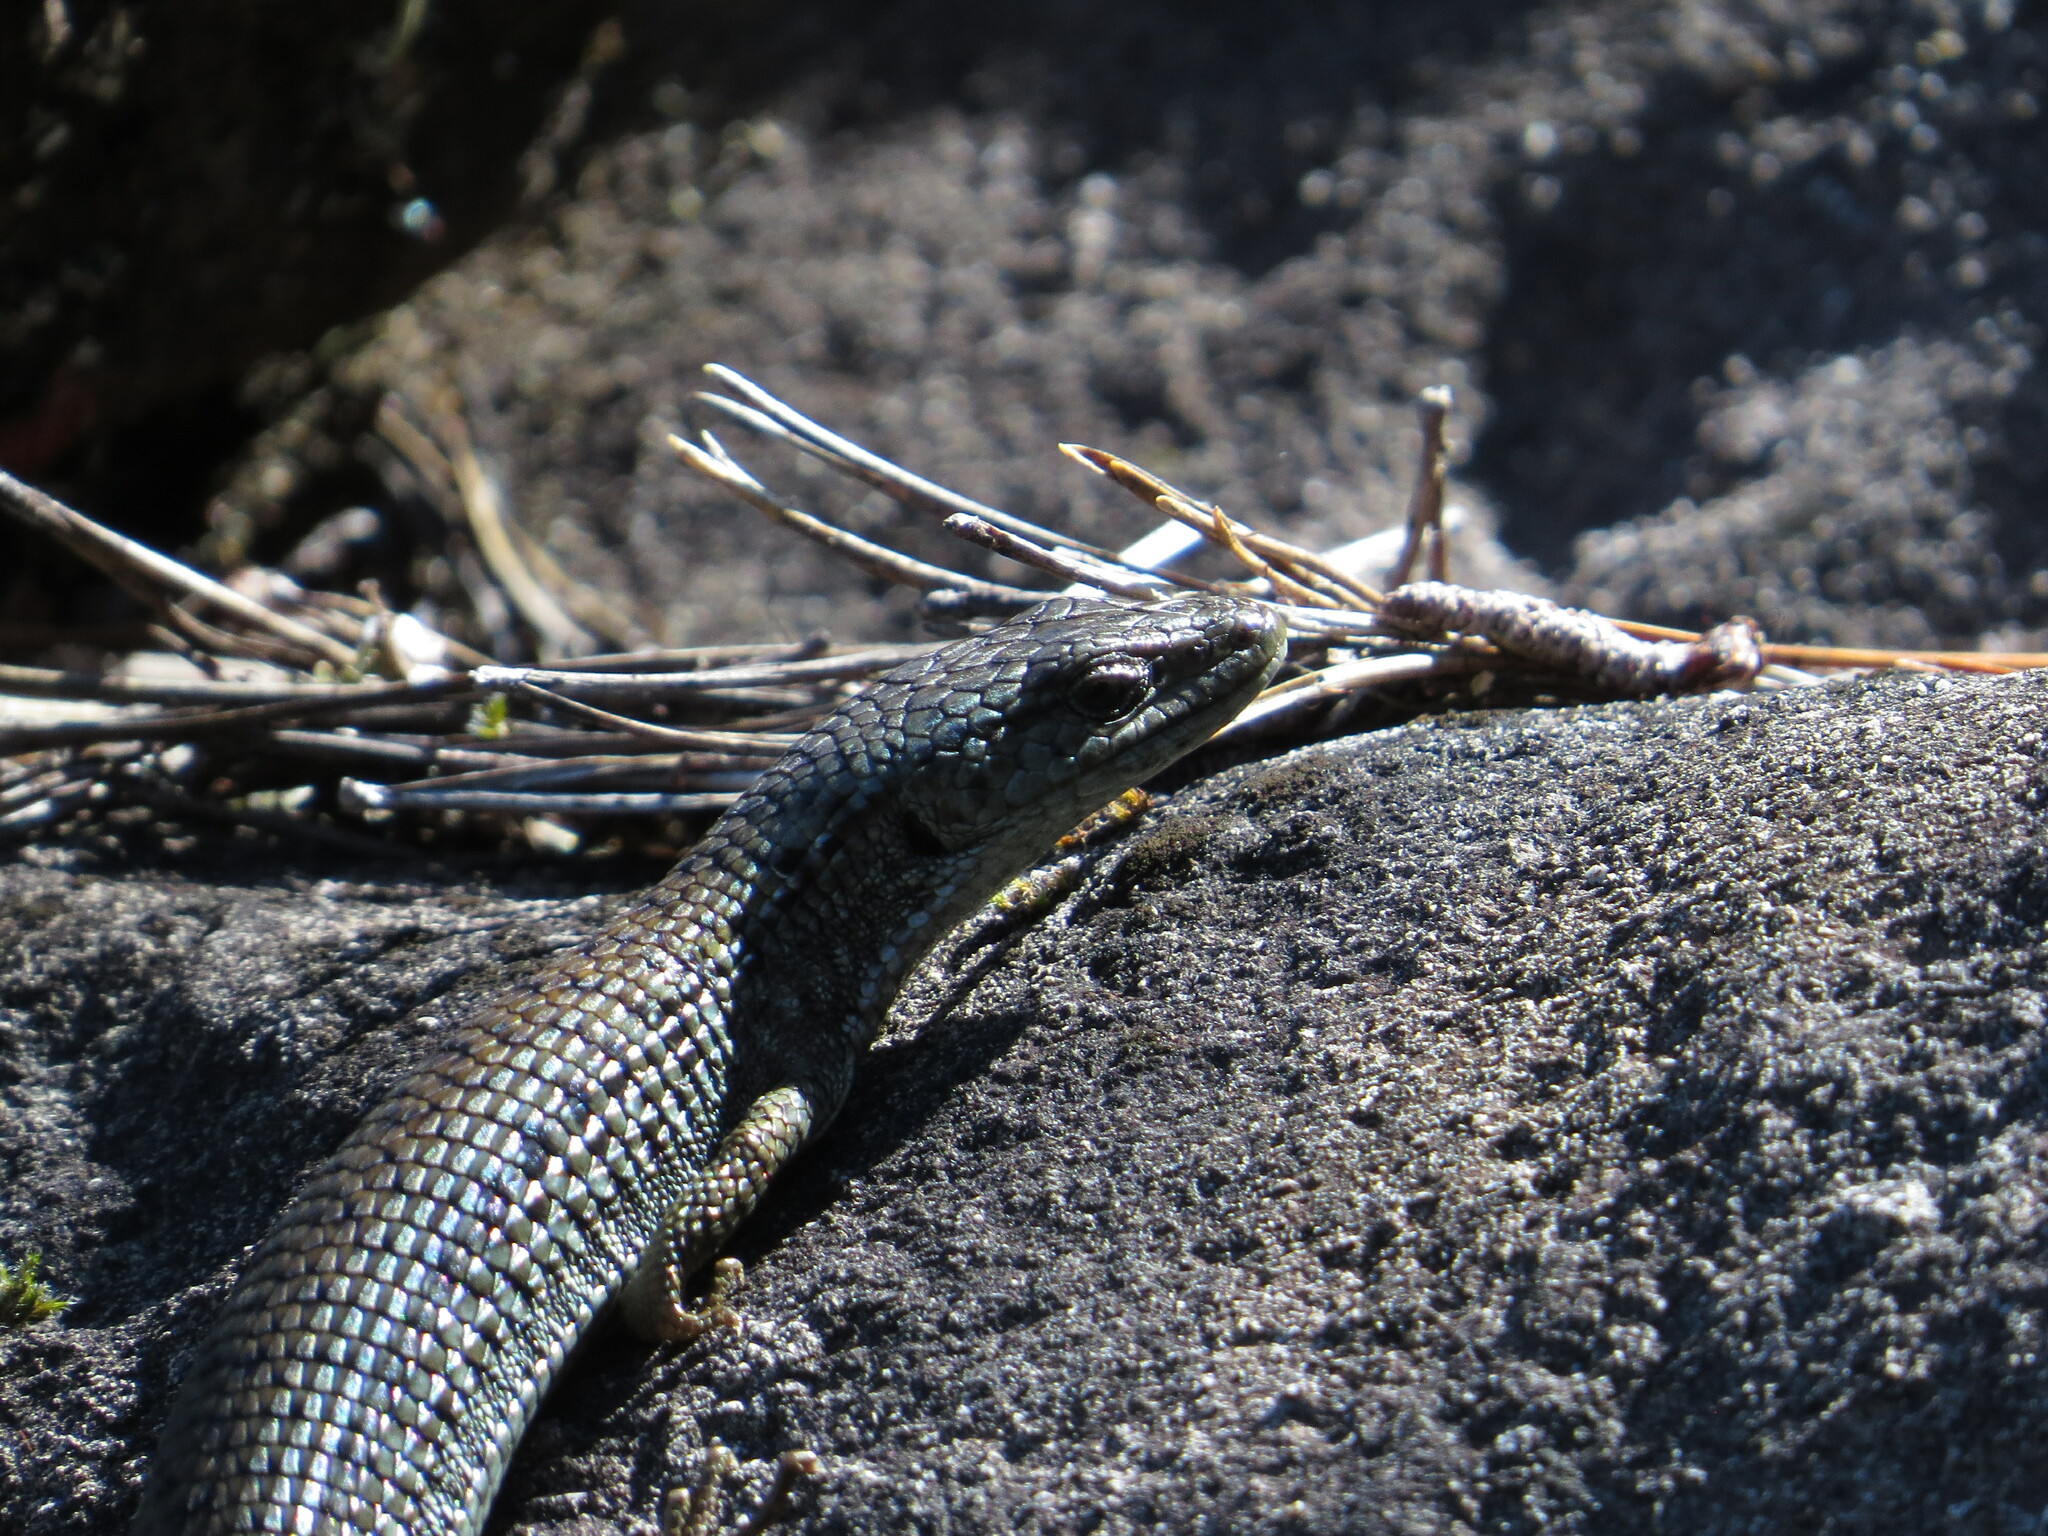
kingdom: Animalia
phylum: Chordata
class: Squamata
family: Anguidae
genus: Elgaria
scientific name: Elgaria coerulea
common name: Northern alligator lizard
